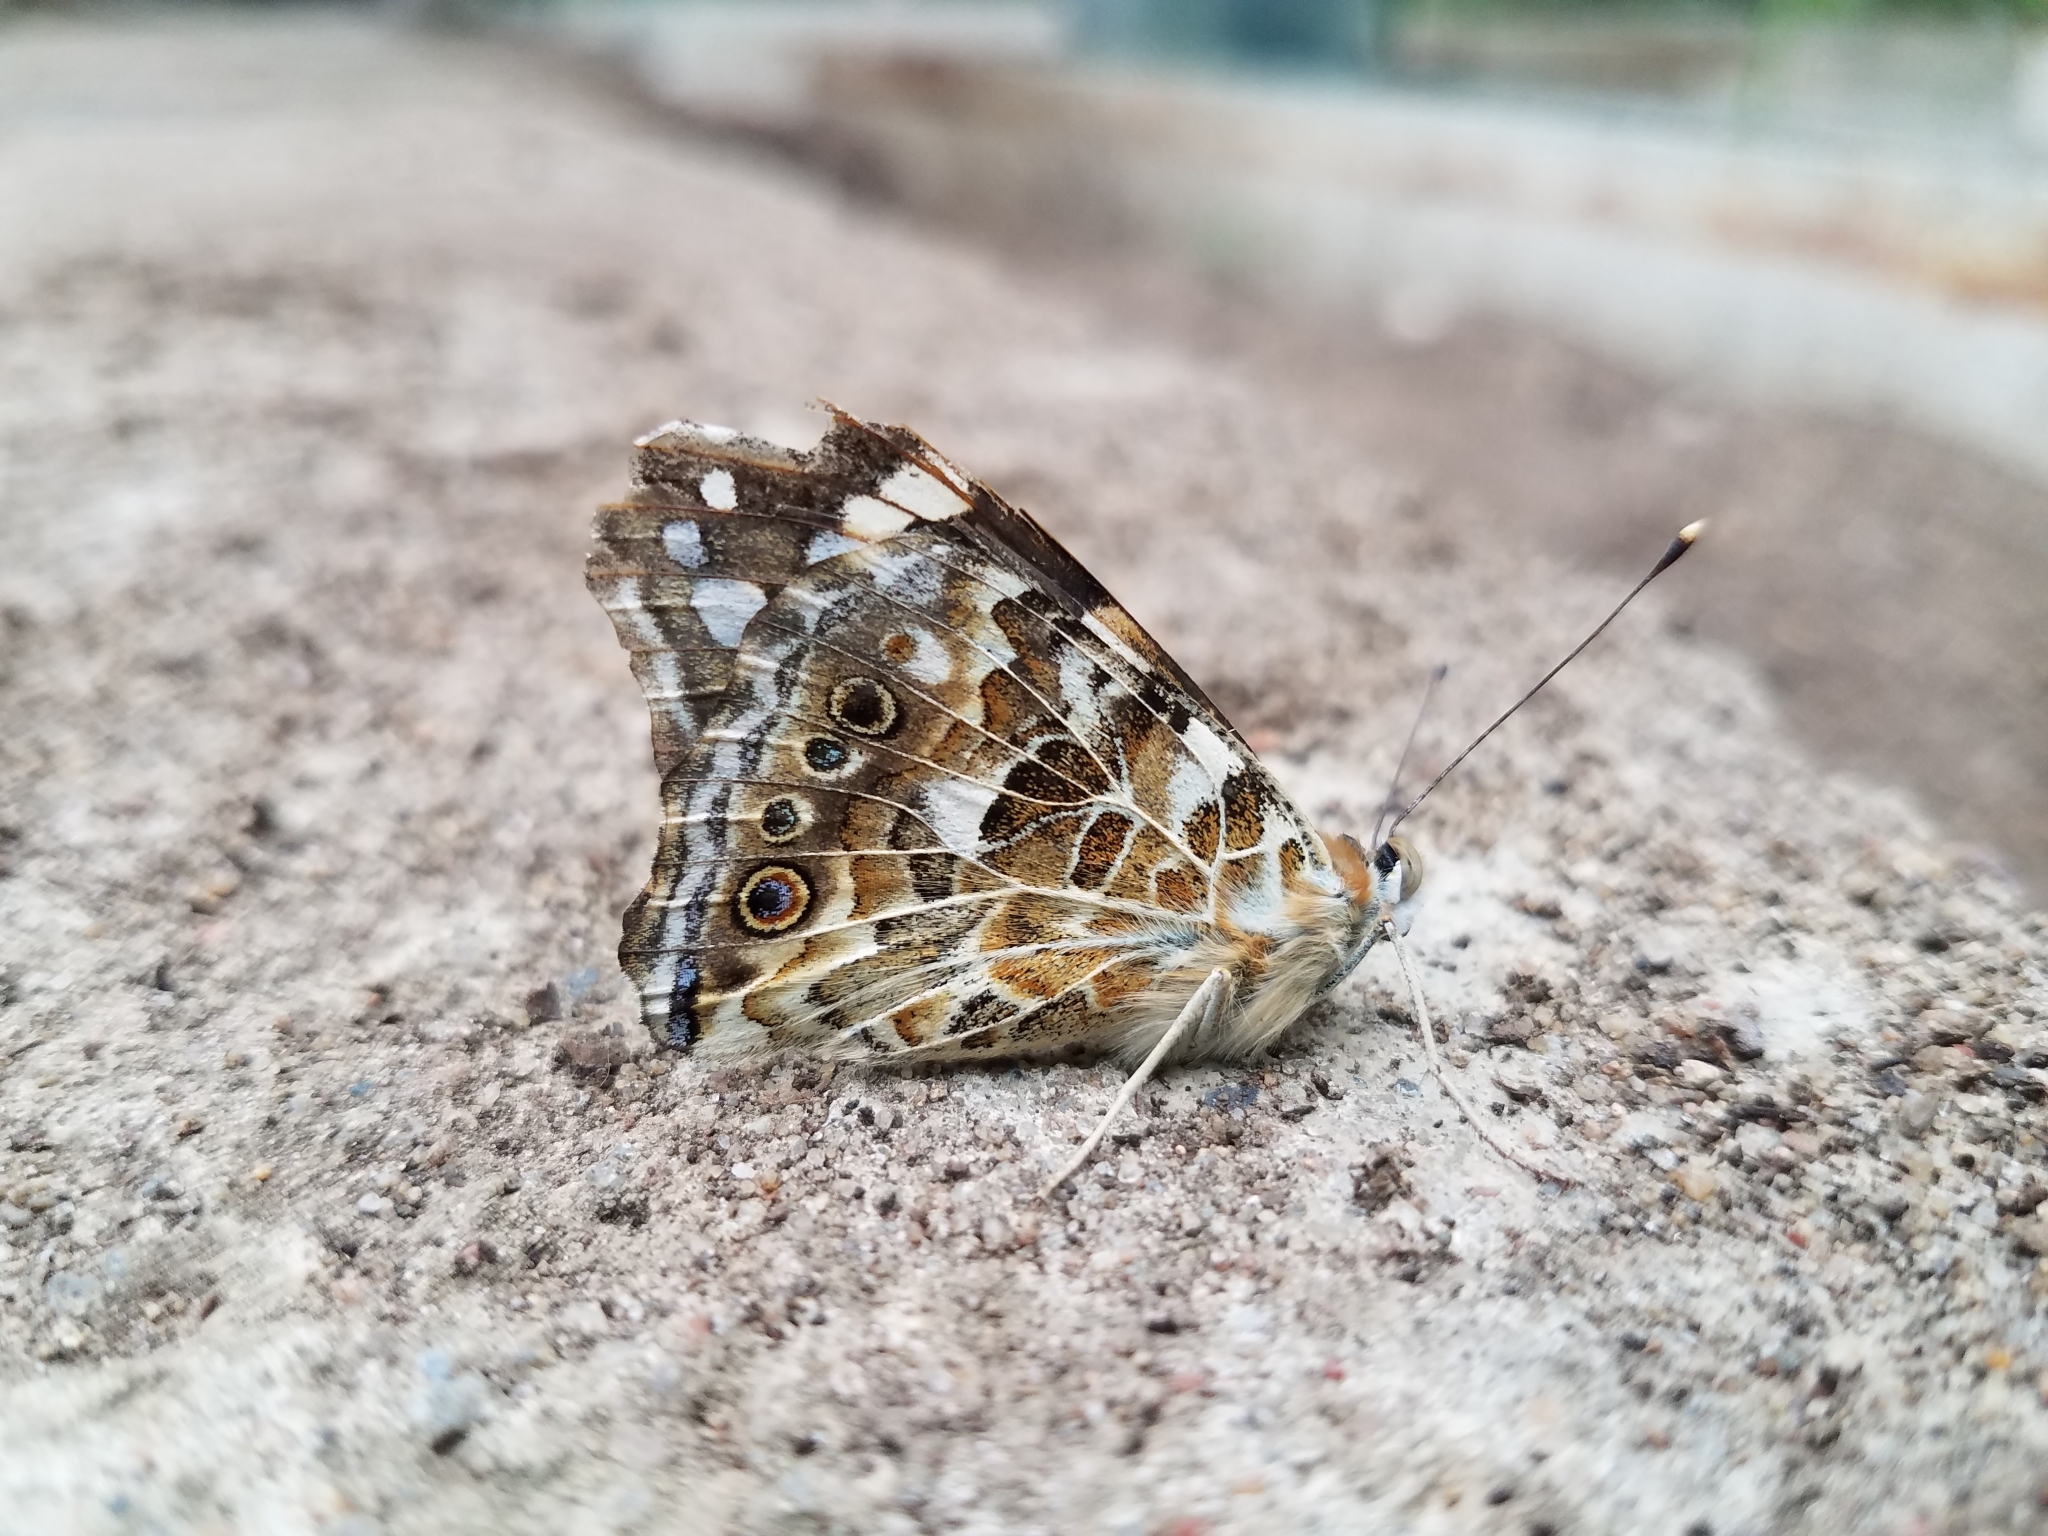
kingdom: Animalia
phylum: Arthropoda
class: Insecta
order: Lepidoptera
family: Nymphalidae
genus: Vanessa
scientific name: Vanessa cardui
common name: Painted lady
